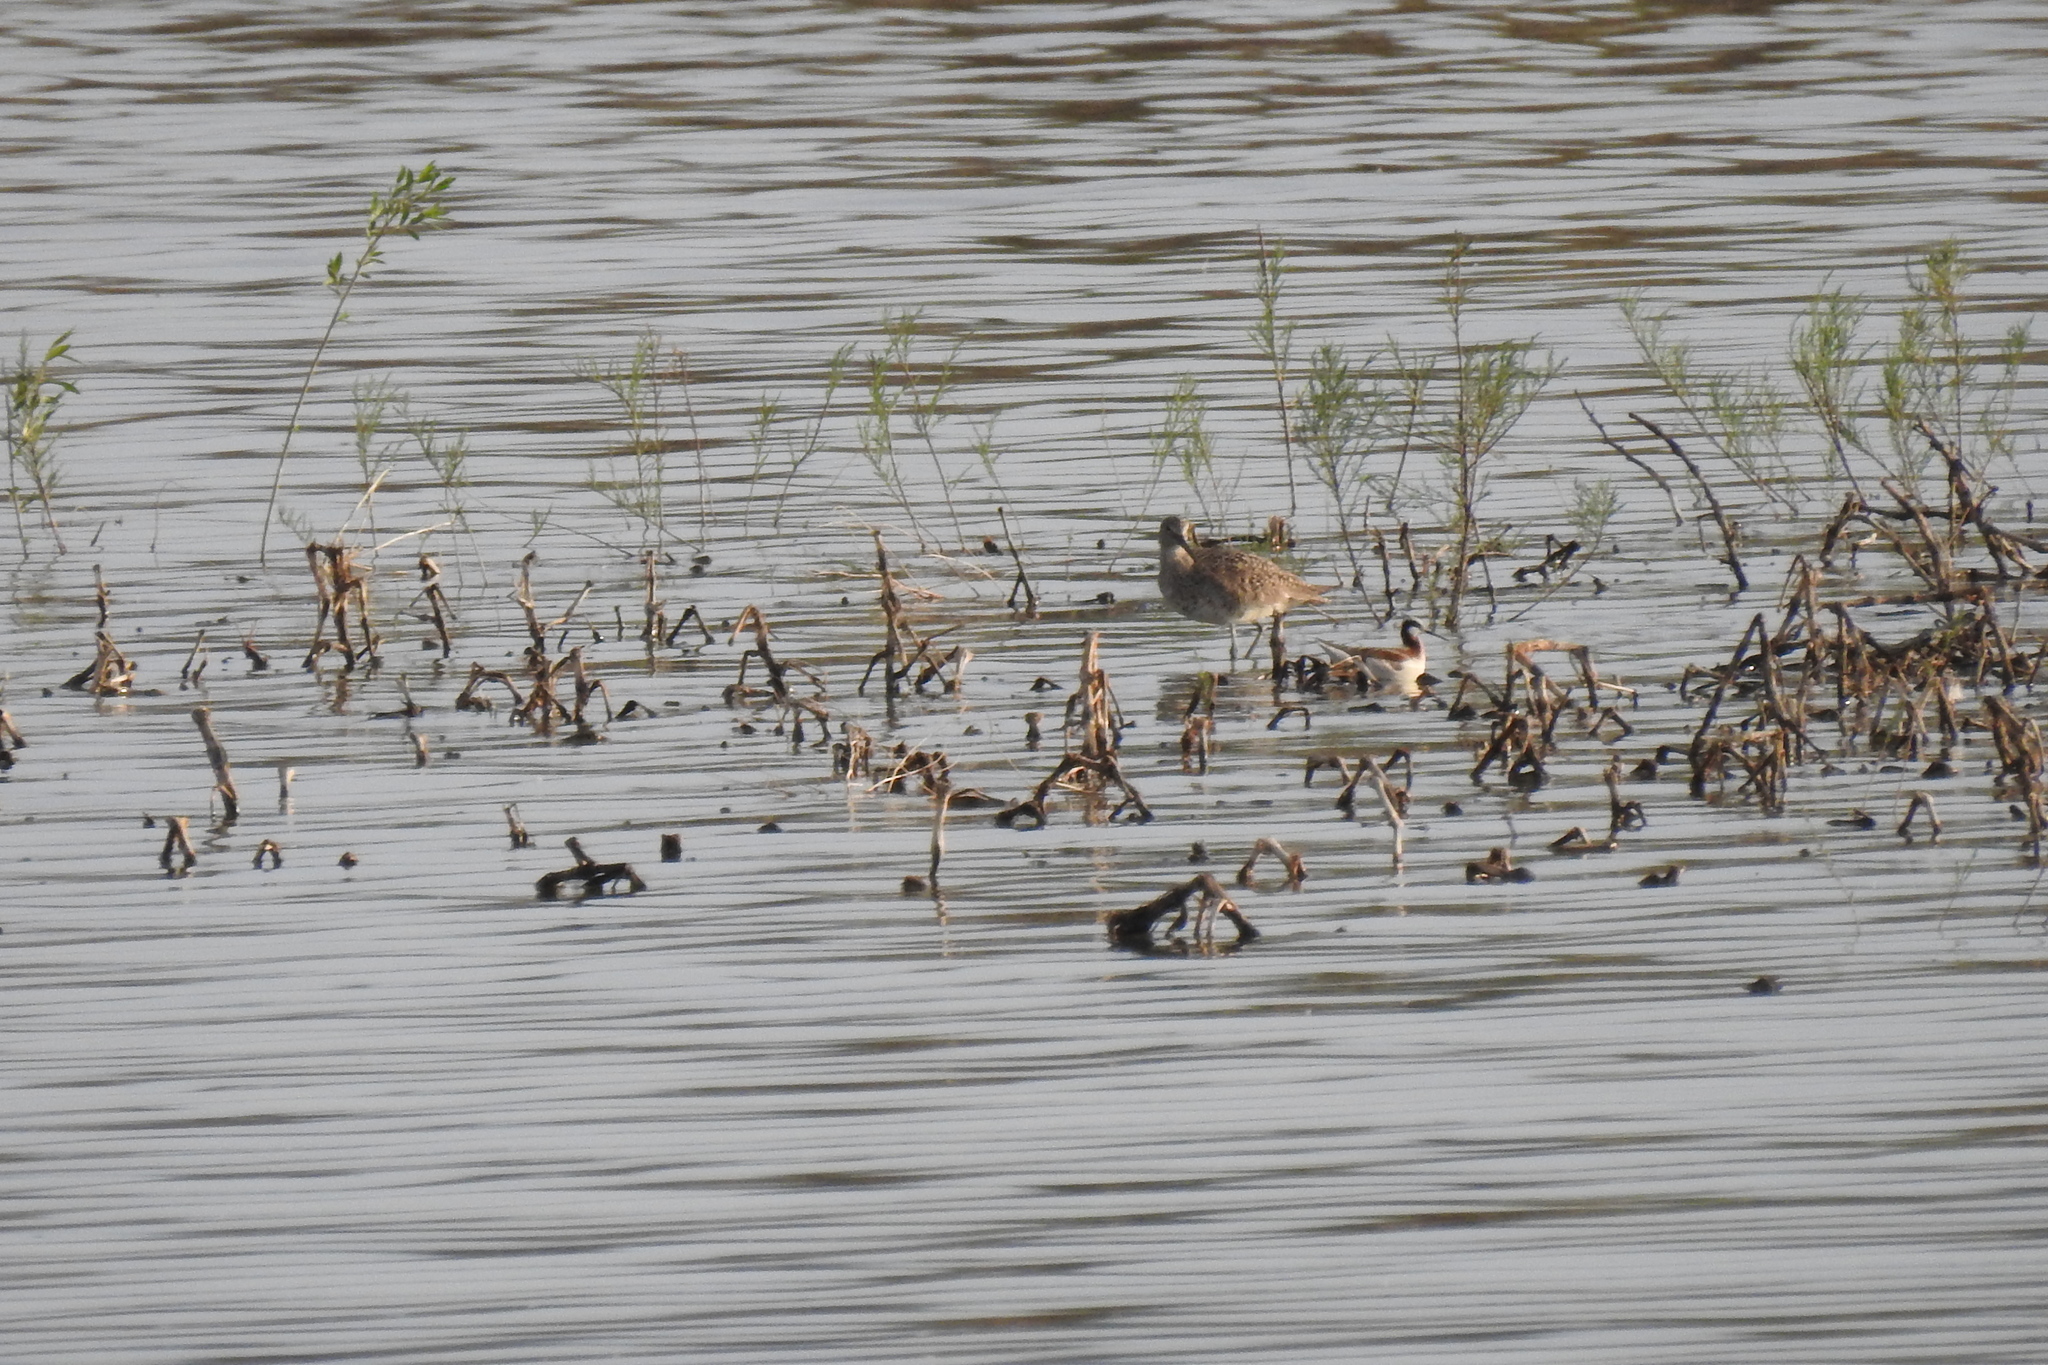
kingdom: Animalia
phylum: Chordata
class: Aves
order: Charadriiformes
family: Scolopacidae
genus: Tringa
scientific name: Tringa semipalmata
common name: Willet
